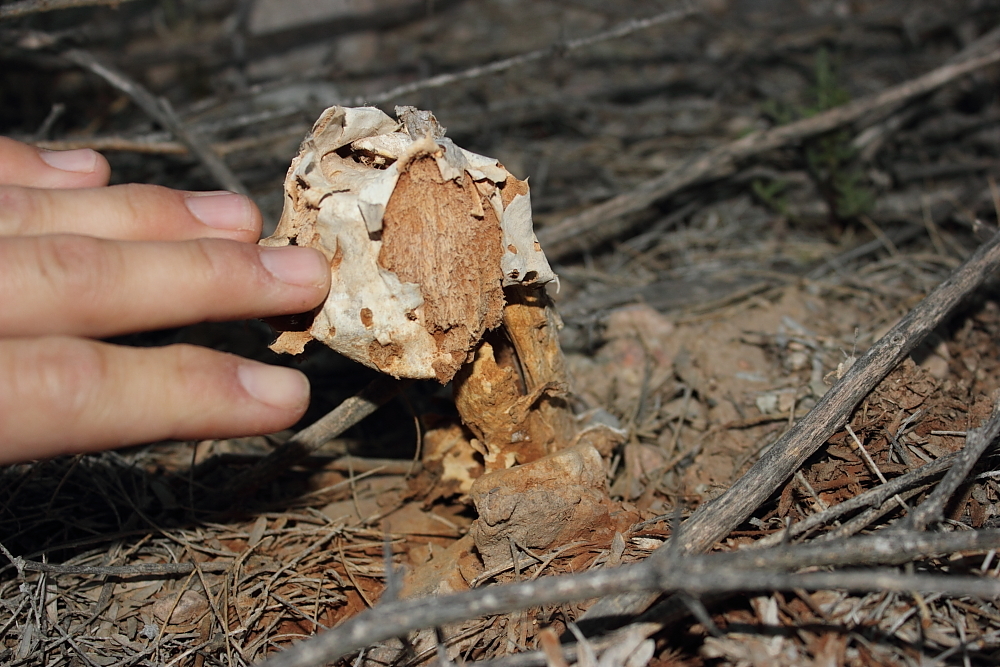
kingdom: Fungi
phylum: Basidiomycota
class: Agaricomycetes
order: Agaricales
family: Agaricaceae
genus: Battarreoides
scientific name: Battarreoides diguetii
